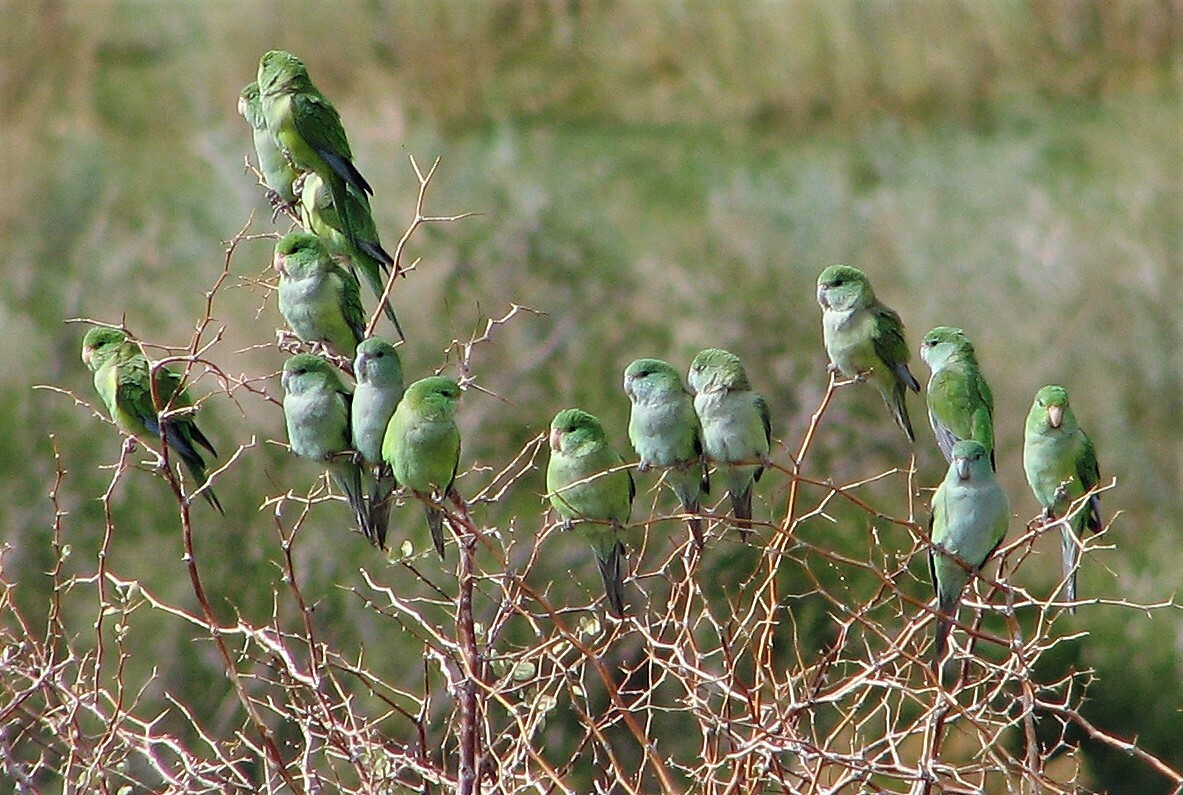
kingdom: Animalia
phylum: Chordata
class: Aves
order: Psittaciformes
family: Psittacidae
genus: Psilopsiagon
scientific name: Psilopsiagon aurifrons
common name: Mountain parakeet
